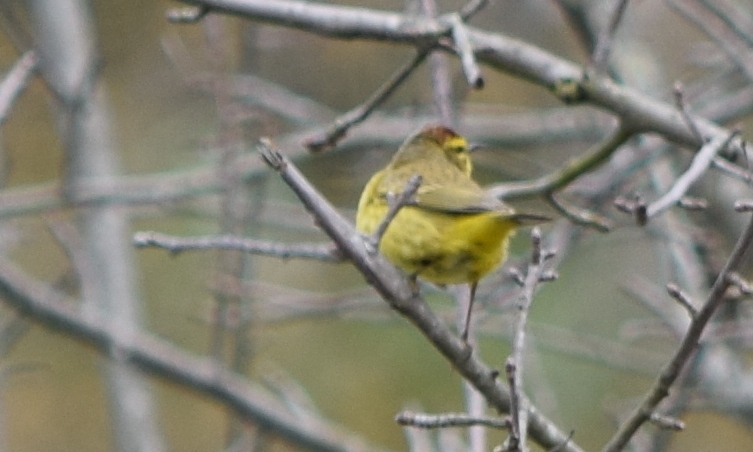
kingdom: Animalia
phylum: Chordata
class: Aves
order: Passeriformes
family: Parulidae
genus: Setophaga
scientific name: Setophaga palmarum
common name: Palm warbler
